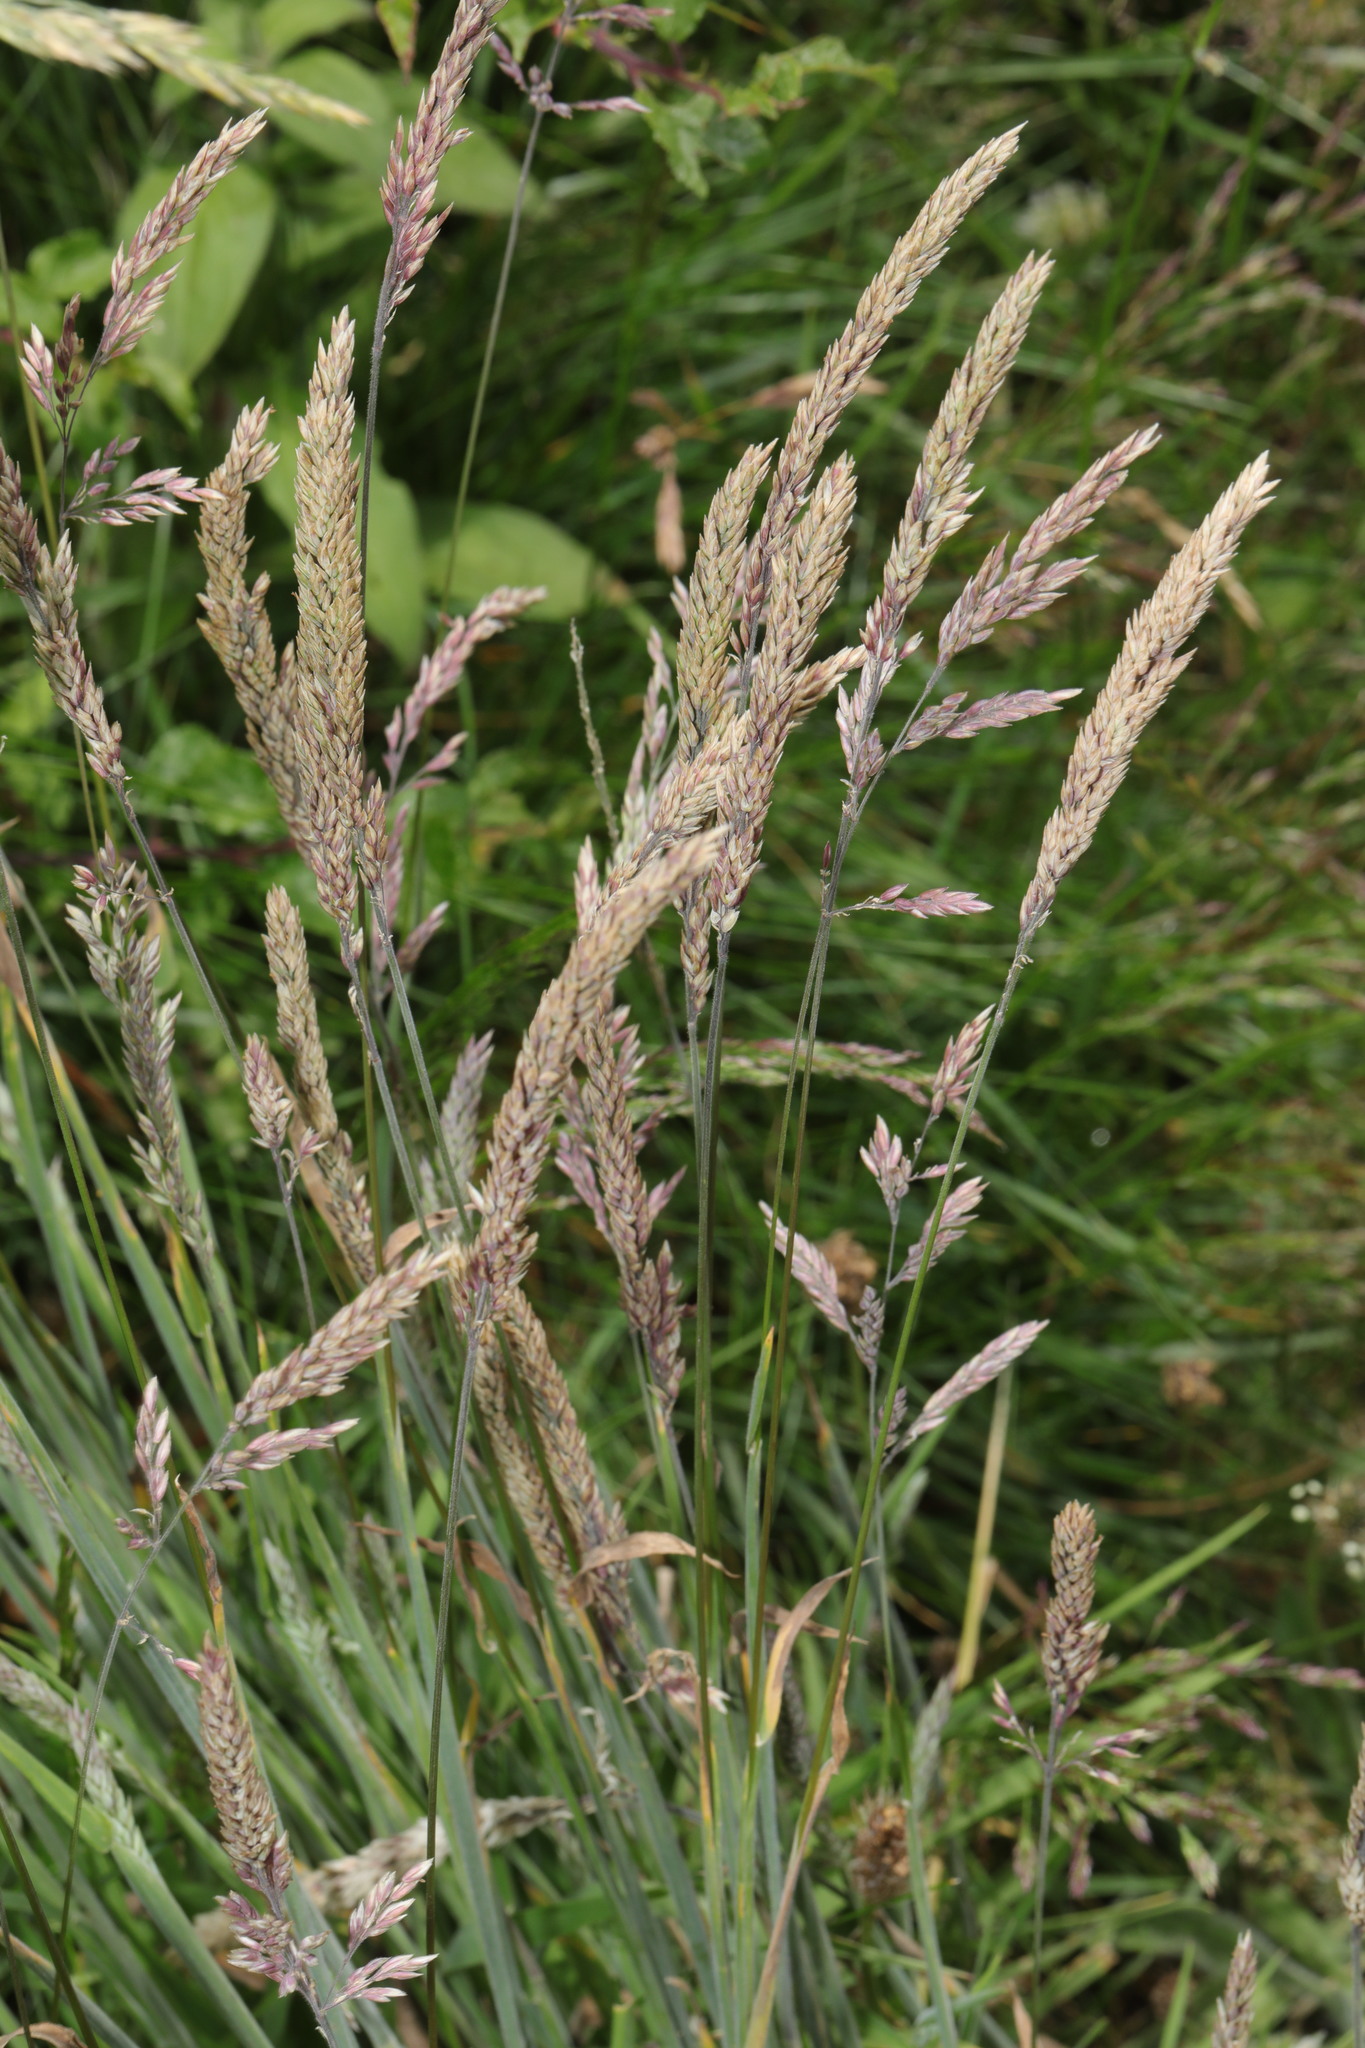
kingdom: Plantae
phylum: Tracheophyta
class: Liliopsida
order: Poales
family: Poaceae
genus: Holcus
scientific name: Holcus lanatus
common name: Yorkshire-fog
